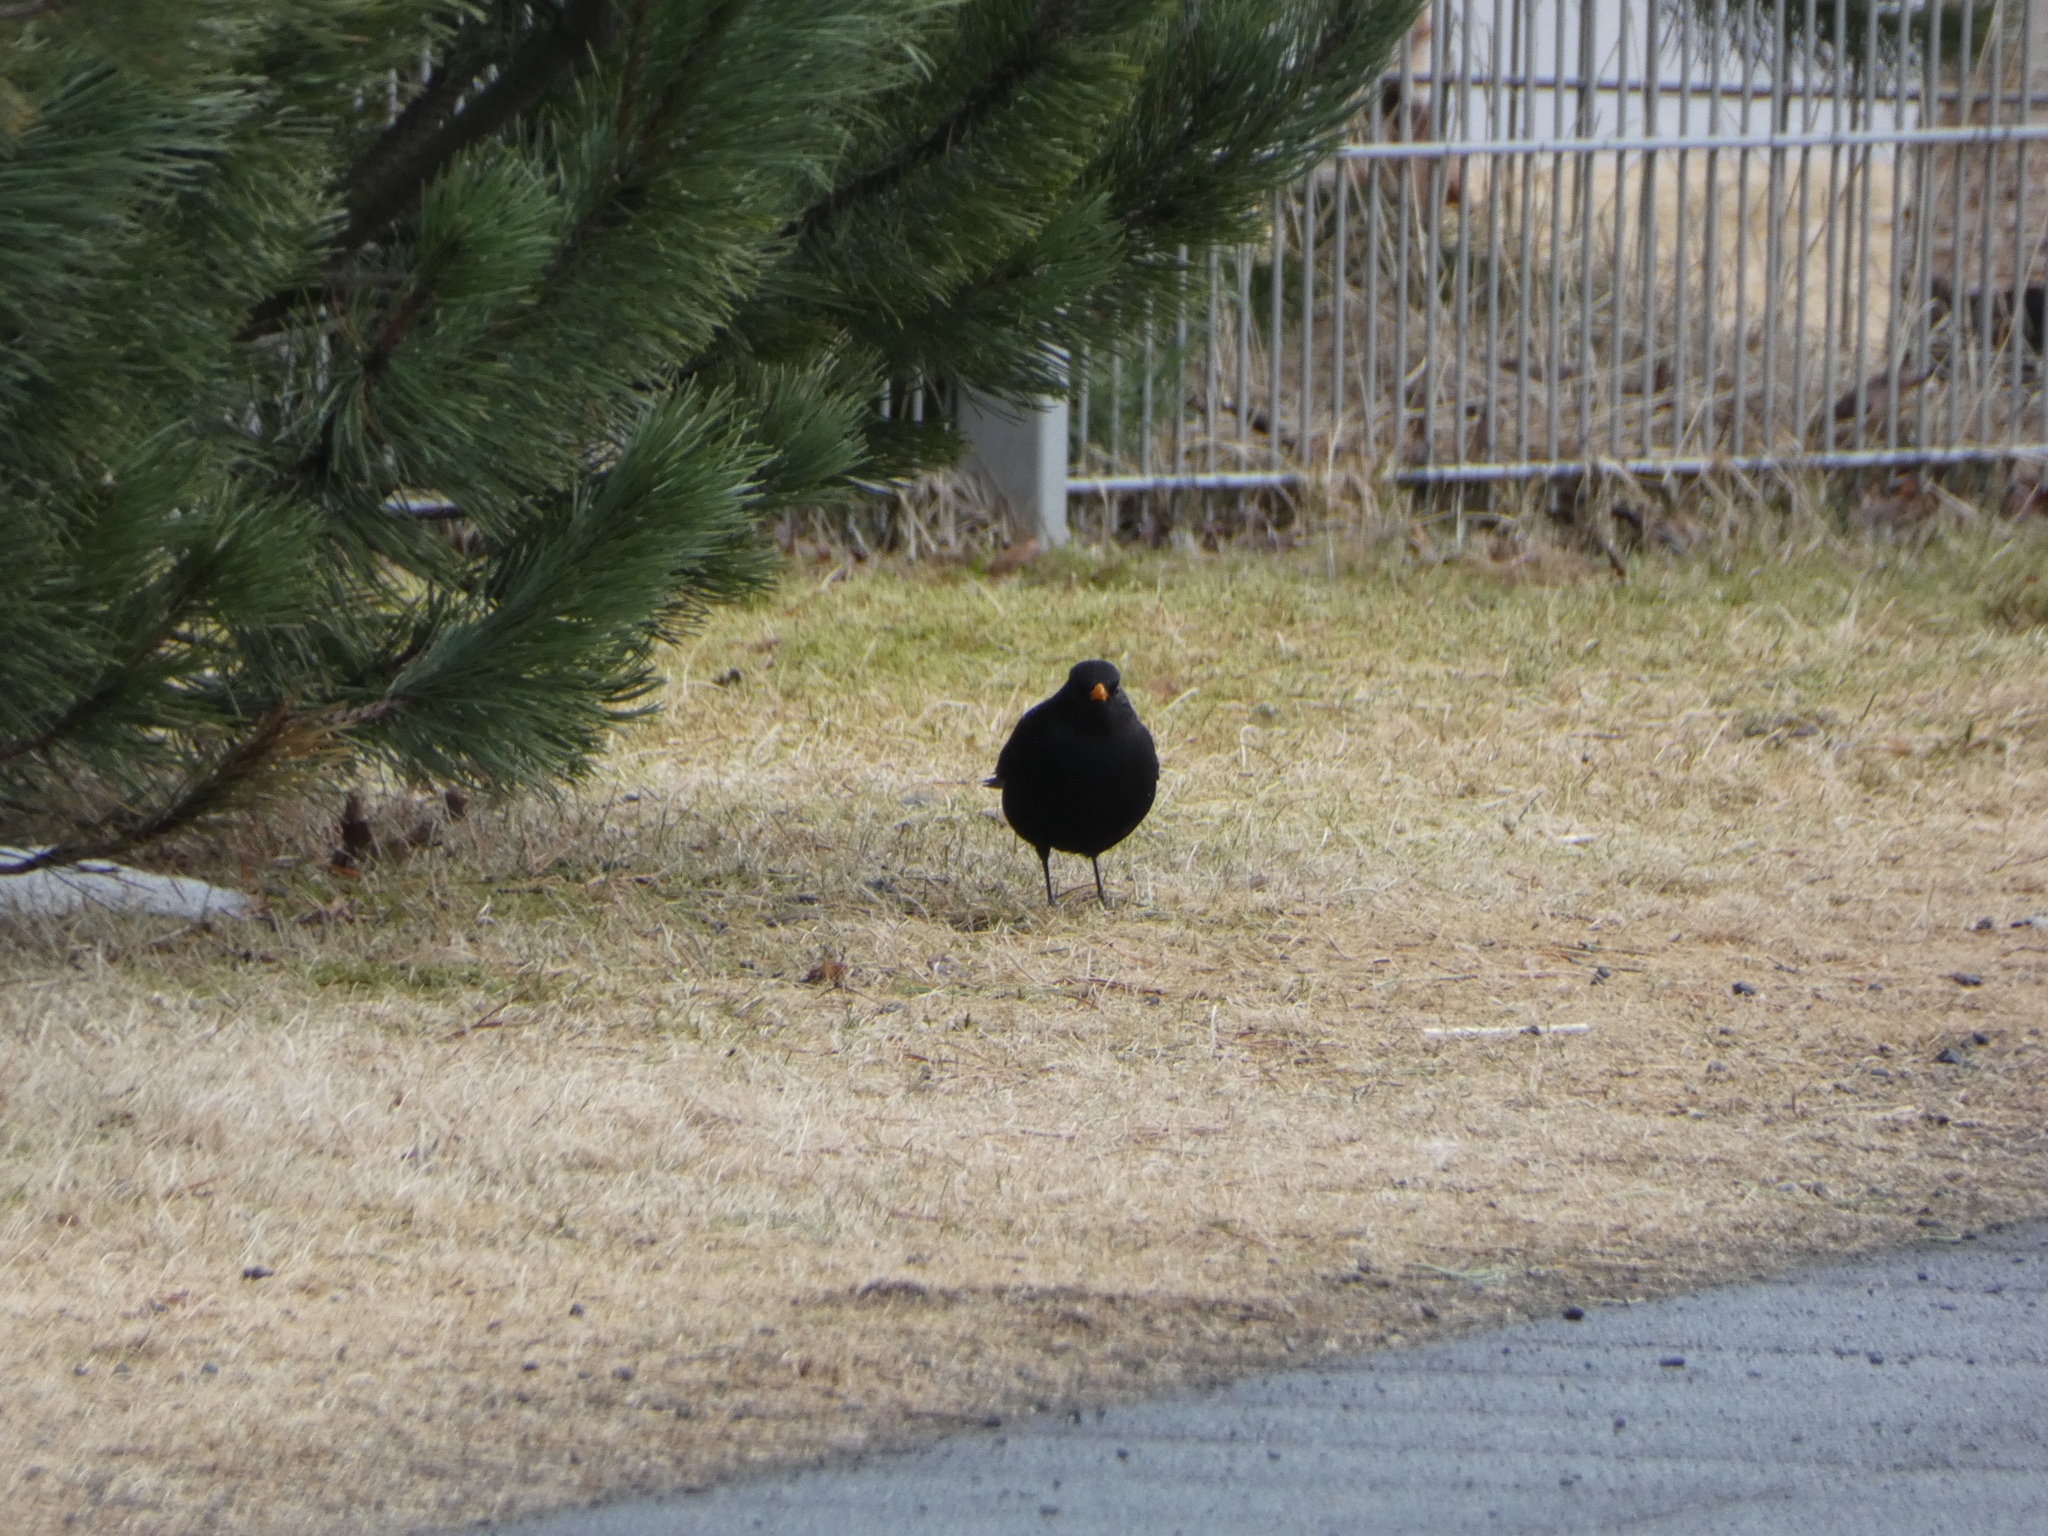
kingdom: Animalia
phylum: Chordata
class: Aves
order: Passeriformes
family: Turdidae
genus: Turdus
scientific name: Turdus merula
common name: Common blackbird
